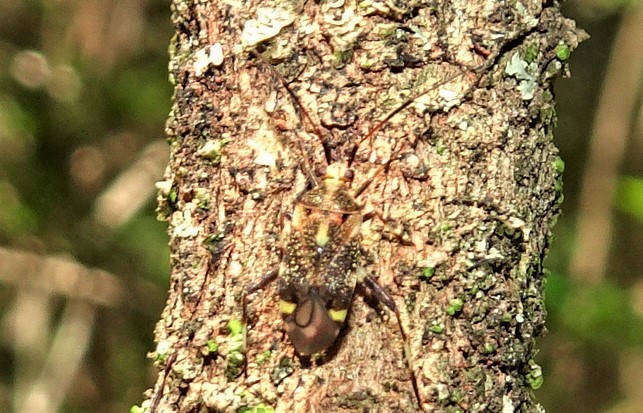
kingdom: Animalia
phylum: Arthropoda
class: Insecta
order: Hemiptera
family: Miridae
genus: Sidnia
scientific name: Sidnia kinbergi
